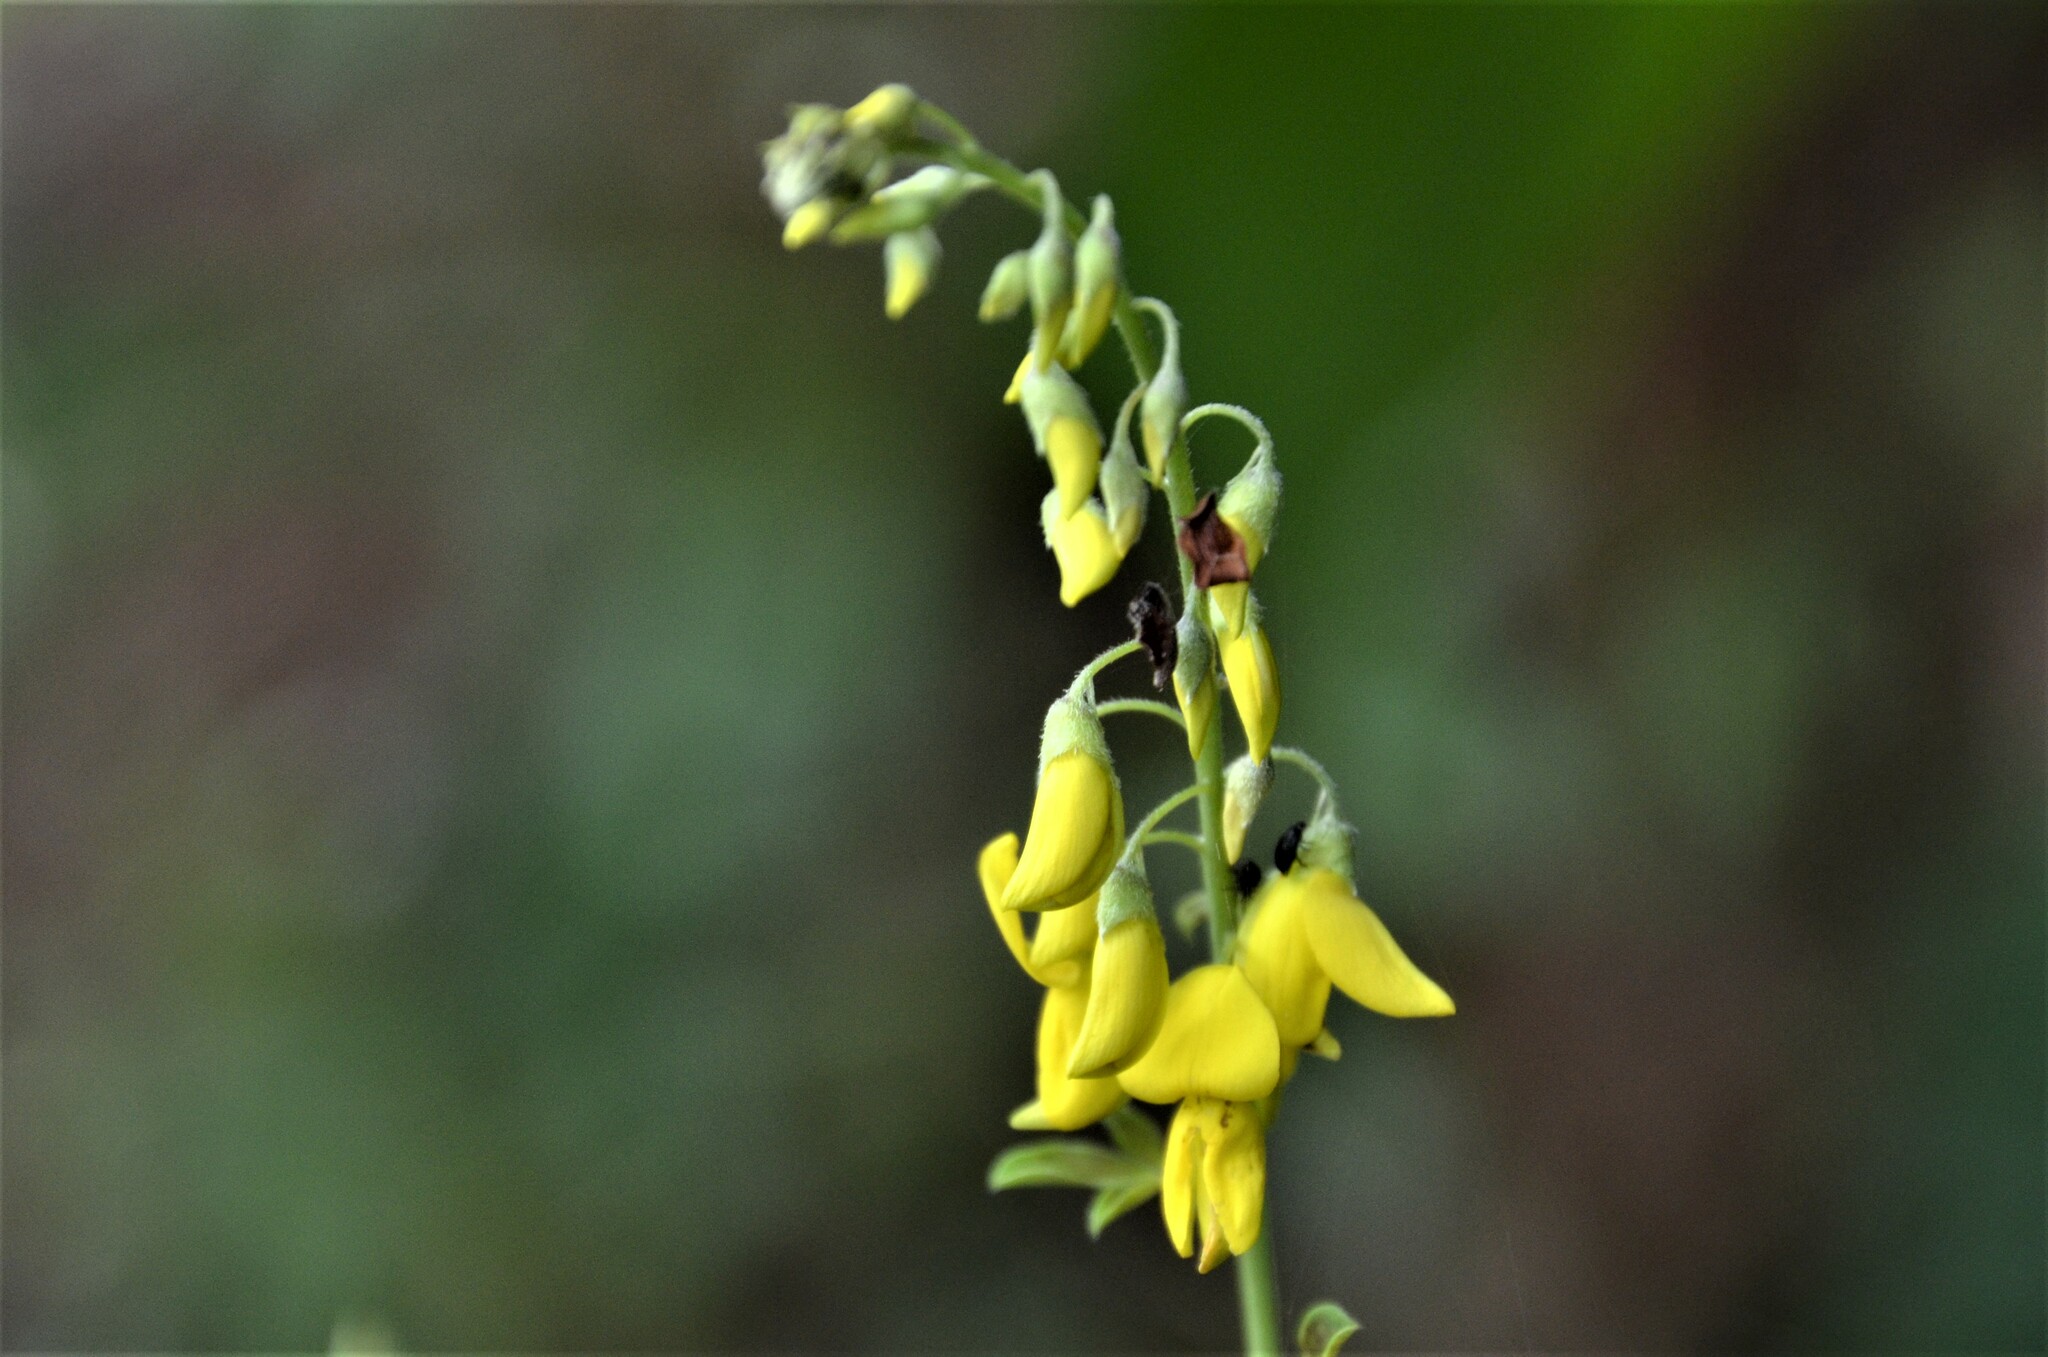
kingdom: Plantae
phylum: Tracheophyta
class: Magnoliopsida
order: Fabales
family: Fabaceae
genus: Cytisus
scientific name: Cytisus nigricans
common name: Black broom
